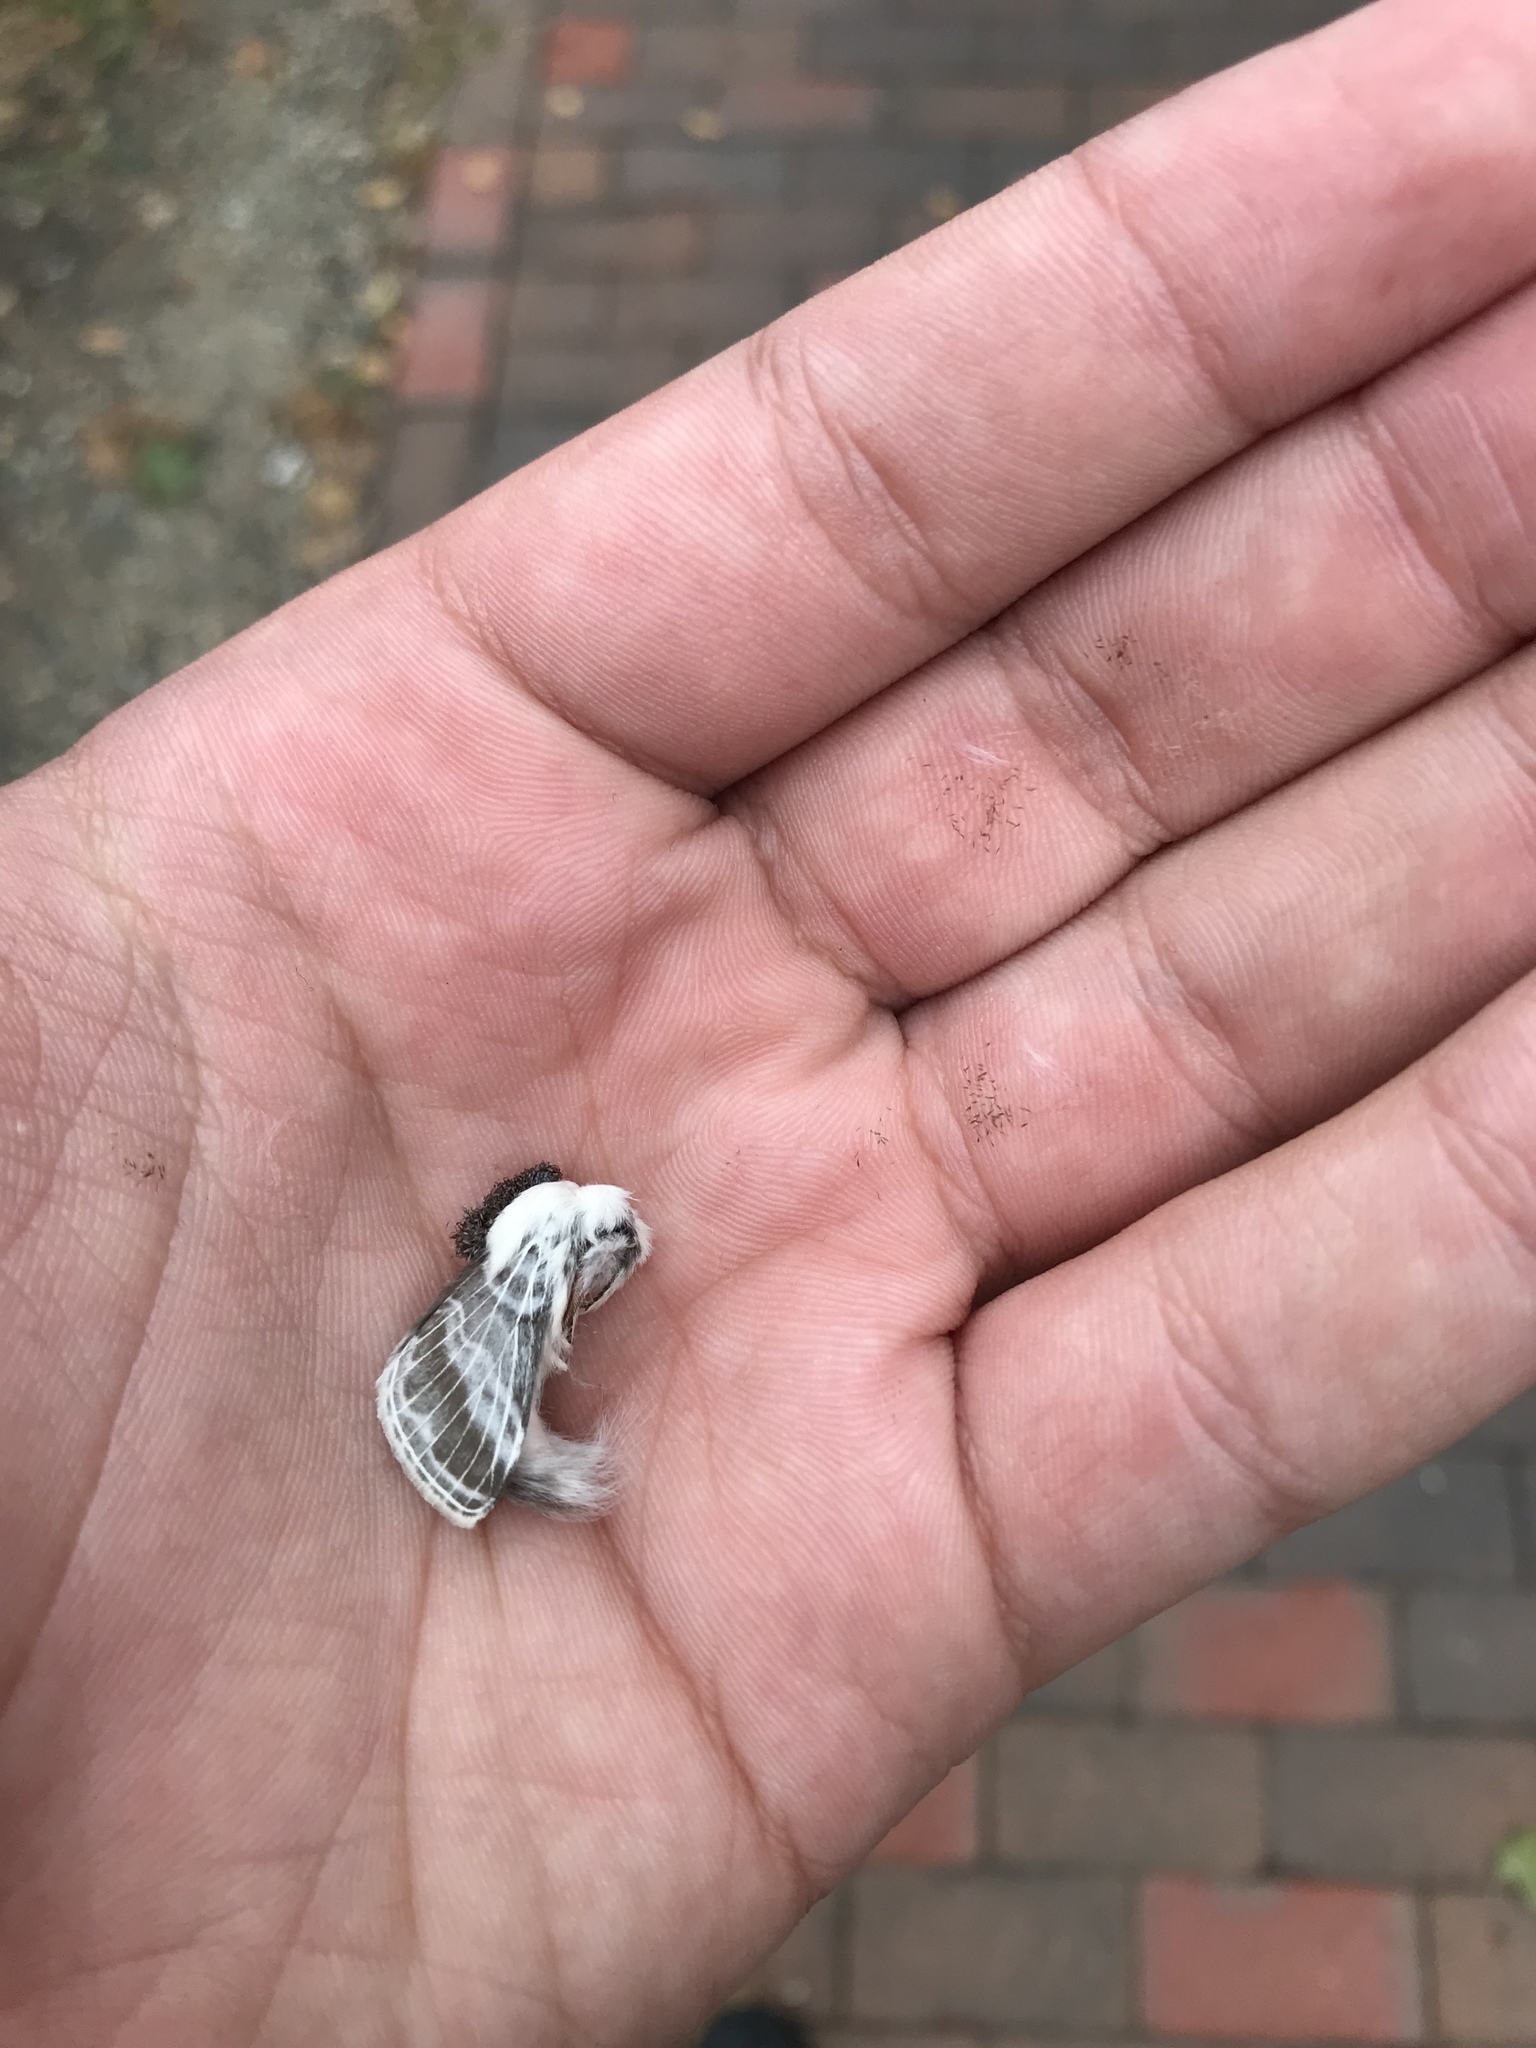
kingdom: Animalia
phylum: Arthropoda
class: Insecta
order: Lepidoptera
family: Lasiocampidae
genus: Tolype
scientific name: Tolype velleda
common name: Large tolype moth
